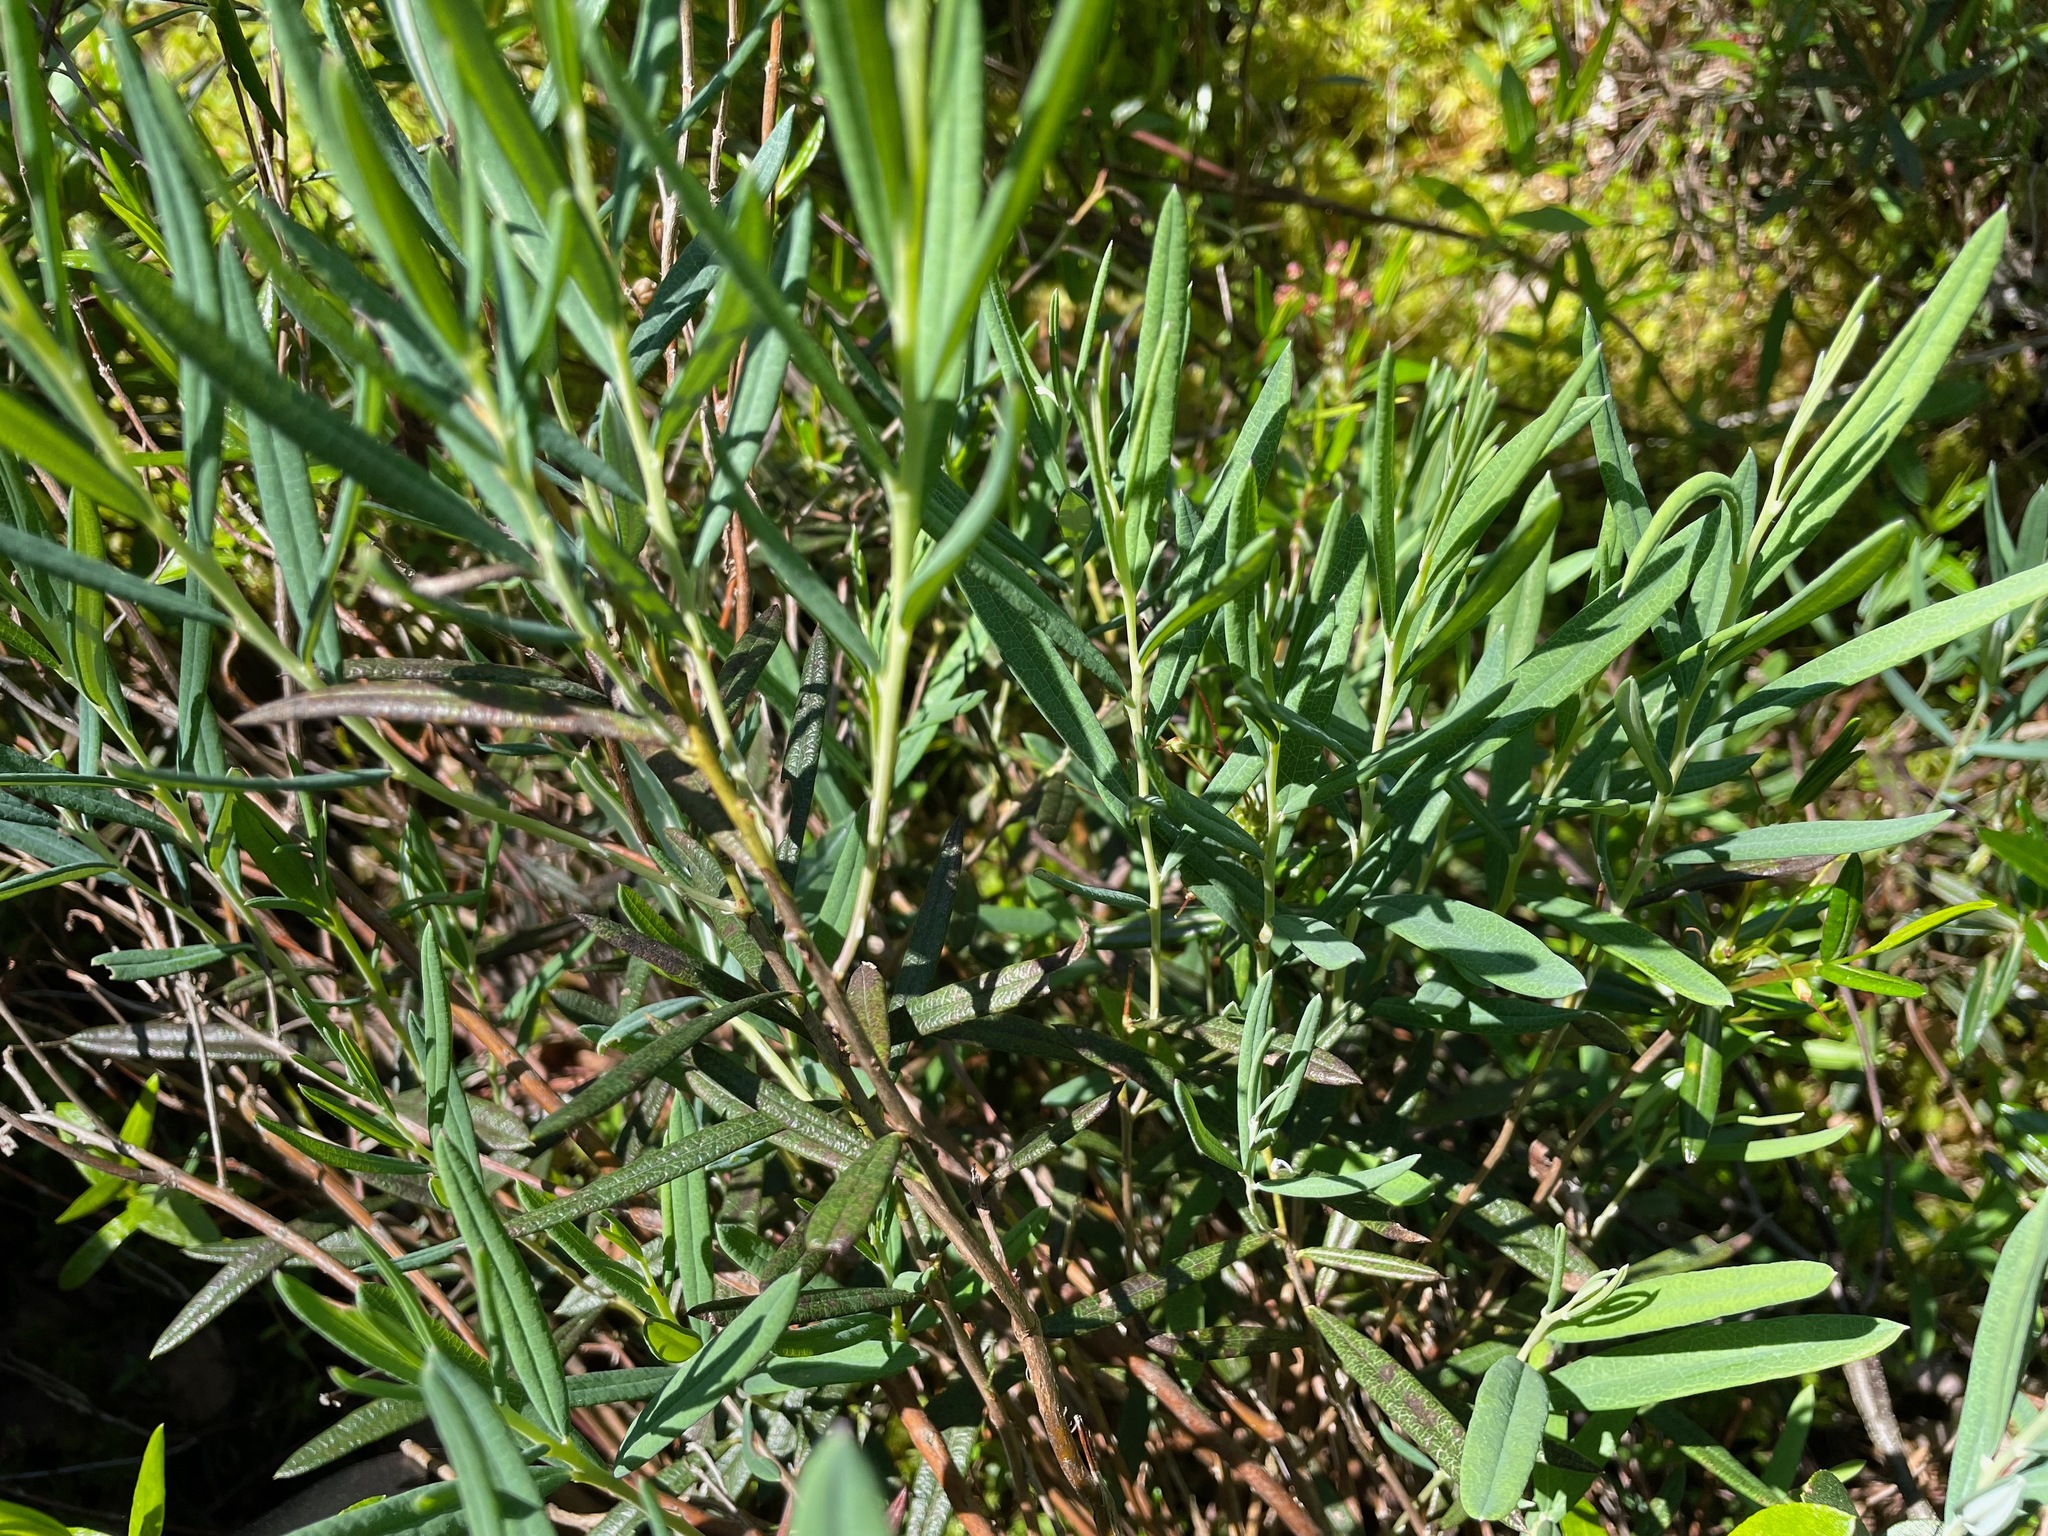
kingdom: Plantae
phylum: Tracheophyta
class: Magnoliopsida
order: Ericales
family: Ericaceae
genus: Andromeda
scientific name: Andromeda polifolia
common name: Bog-rosemary
